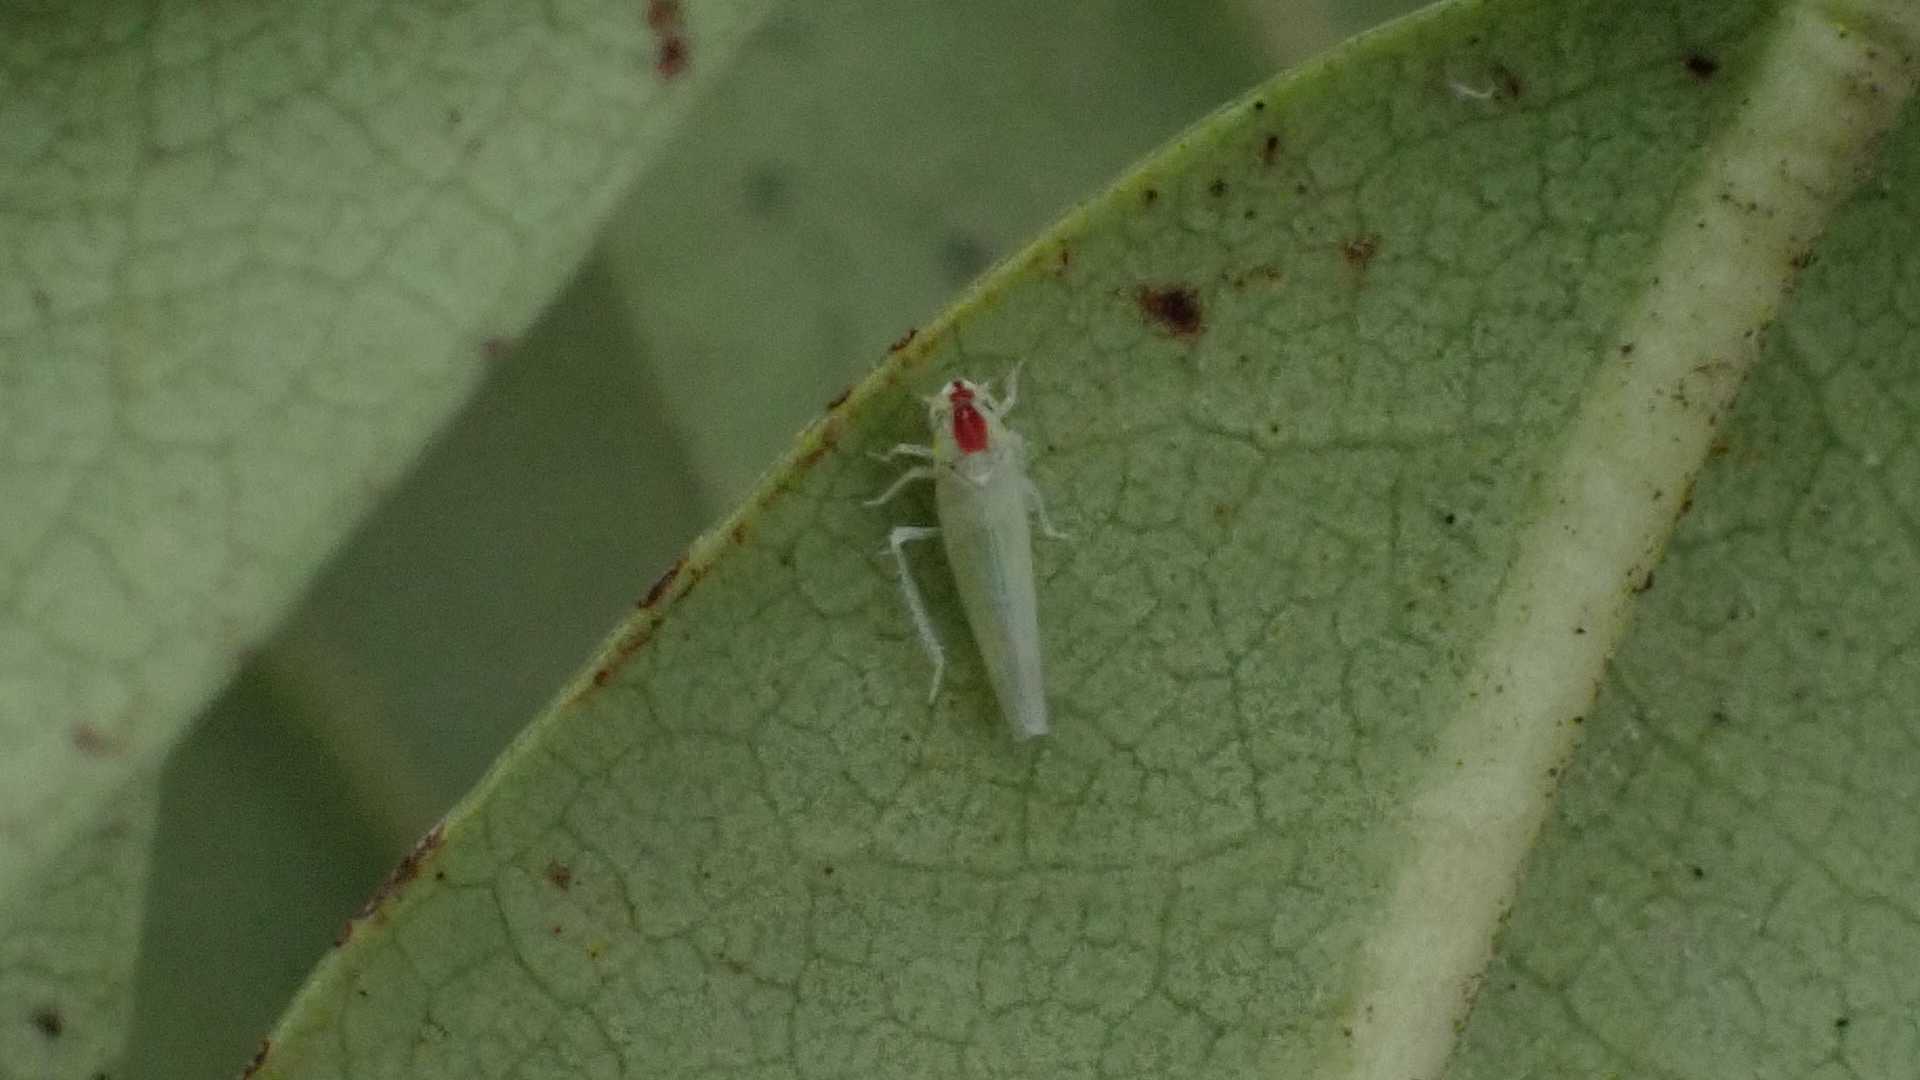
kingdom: Animalia
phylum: Arthropoda
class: Insecta
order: Hemiptera
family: Cicadellidae
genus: Zygina
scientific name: Zygina nivea
